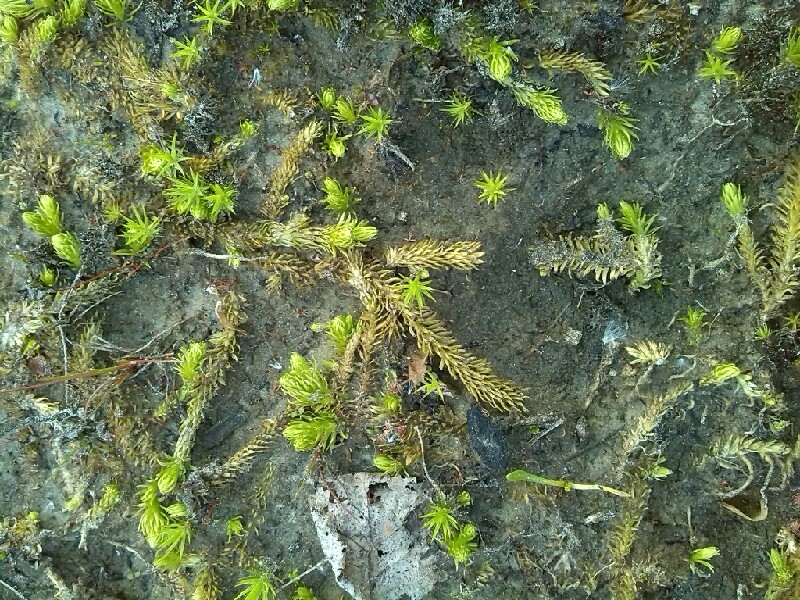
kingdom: Plantae
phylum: Tracheophyta
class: Lycopodiopsida
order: Lycopodiales
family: Lycopodiaceae
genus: Lycopodiella
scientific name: Lycopodiella inundata
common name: Marsh clubmoss
